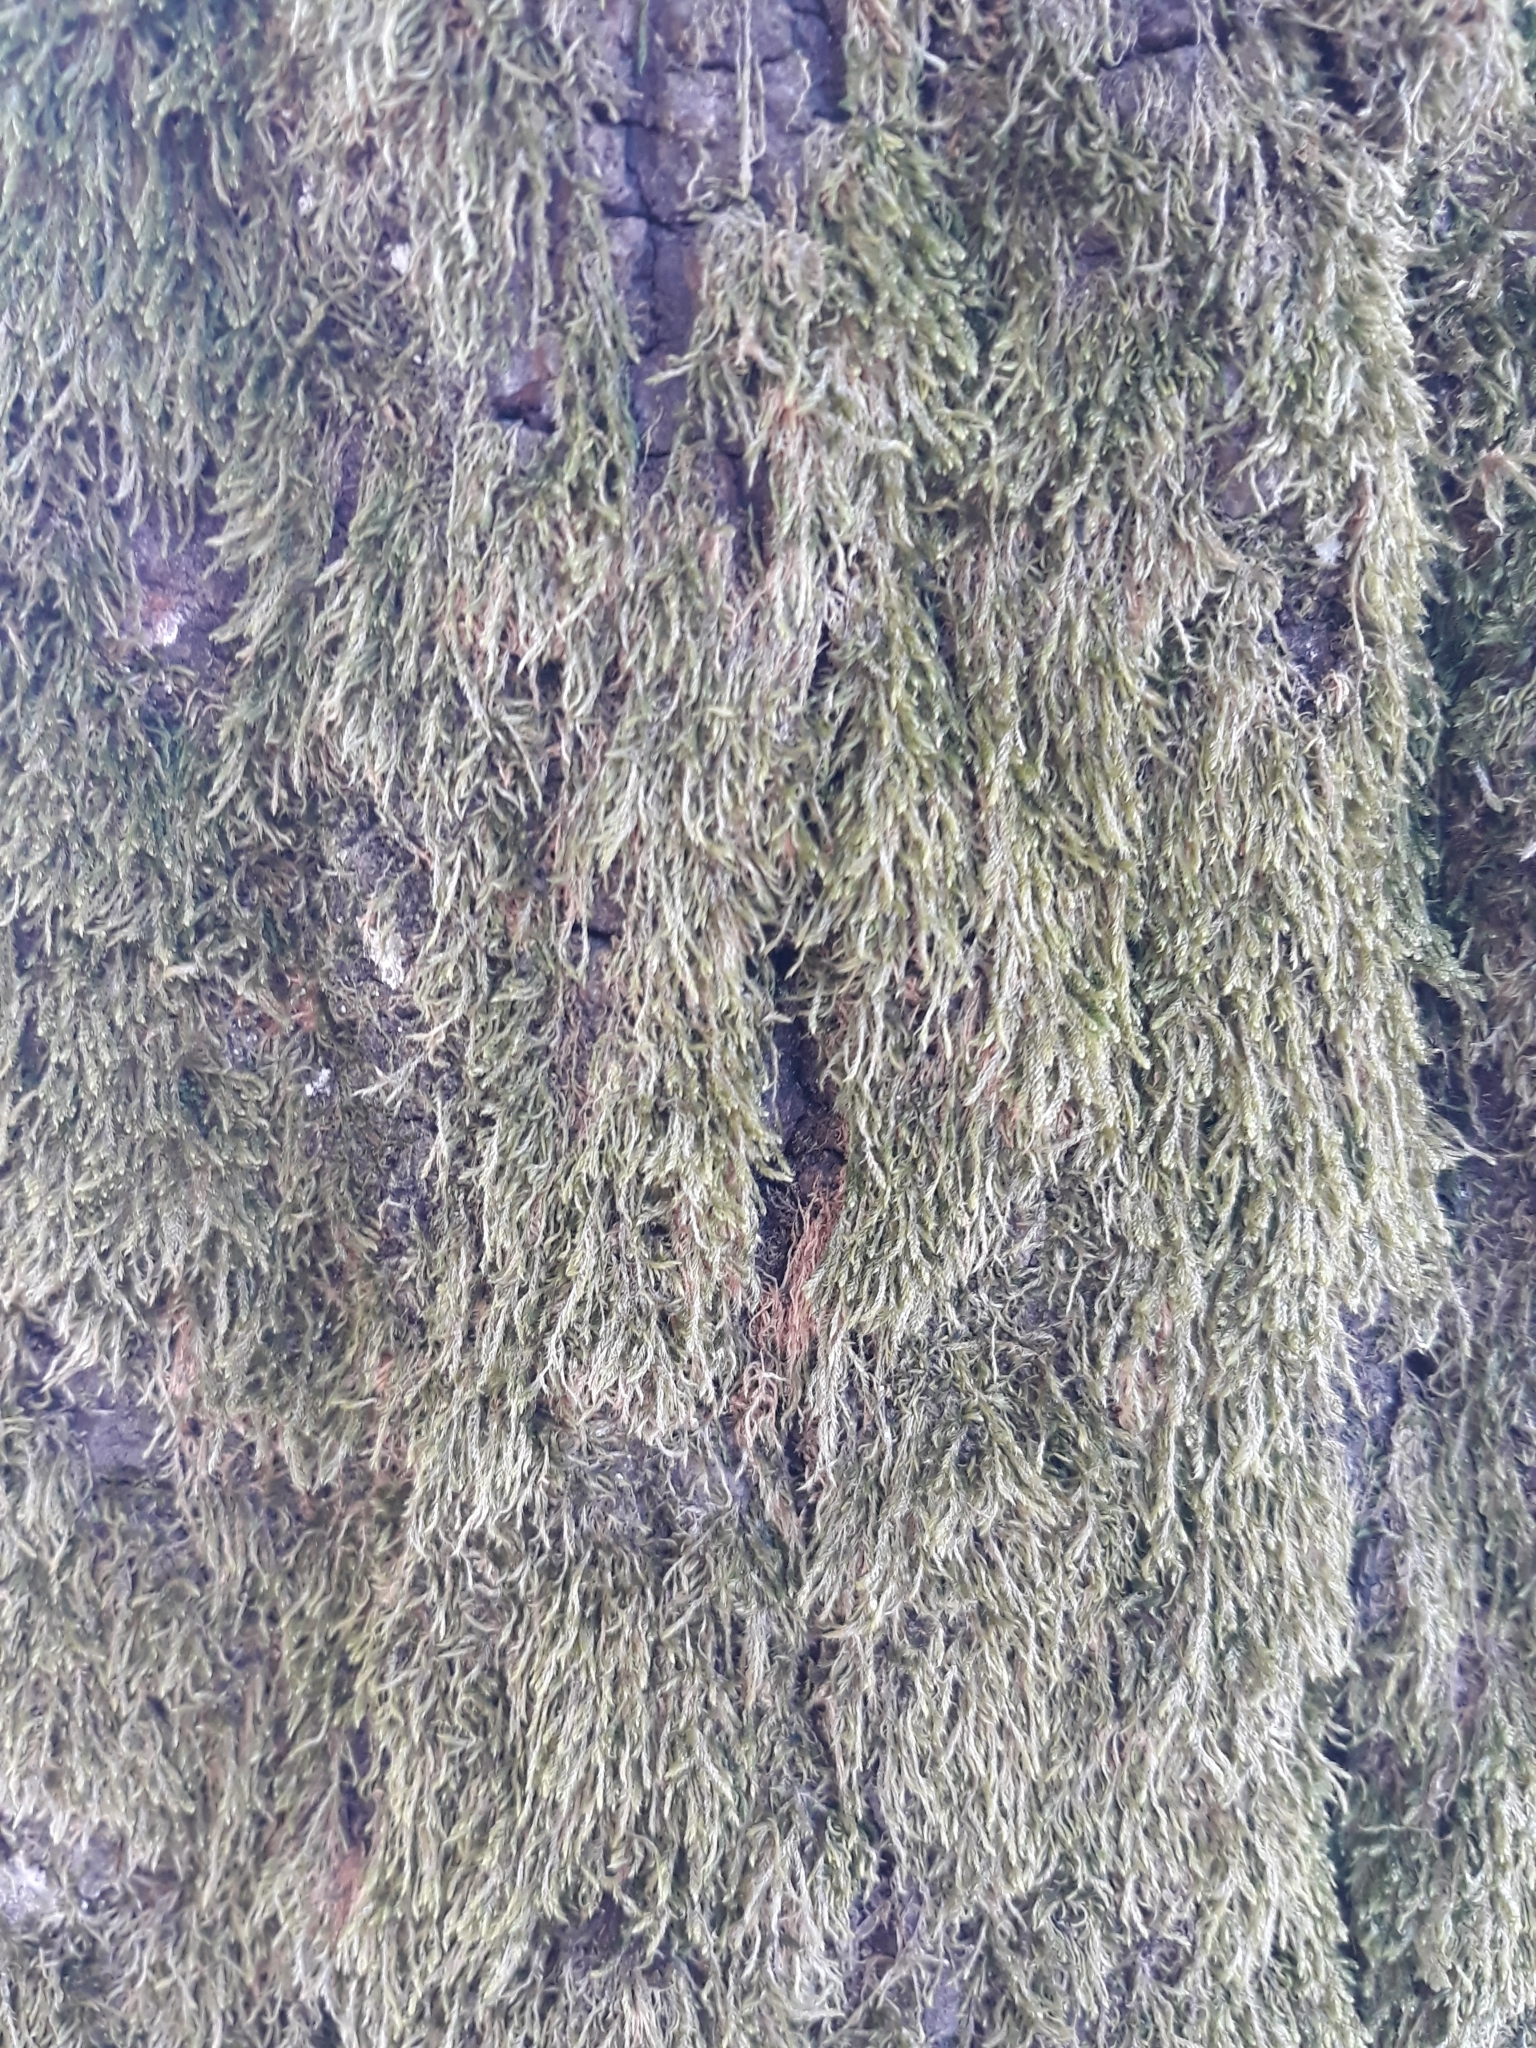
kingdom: Plantae
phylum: Bryophyta
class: Bryopsida
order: Hypnales
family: Hypnaceae
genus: Hypnum
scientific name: Hypnum cupressiforme
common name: Cypress-leaved plait-moss
